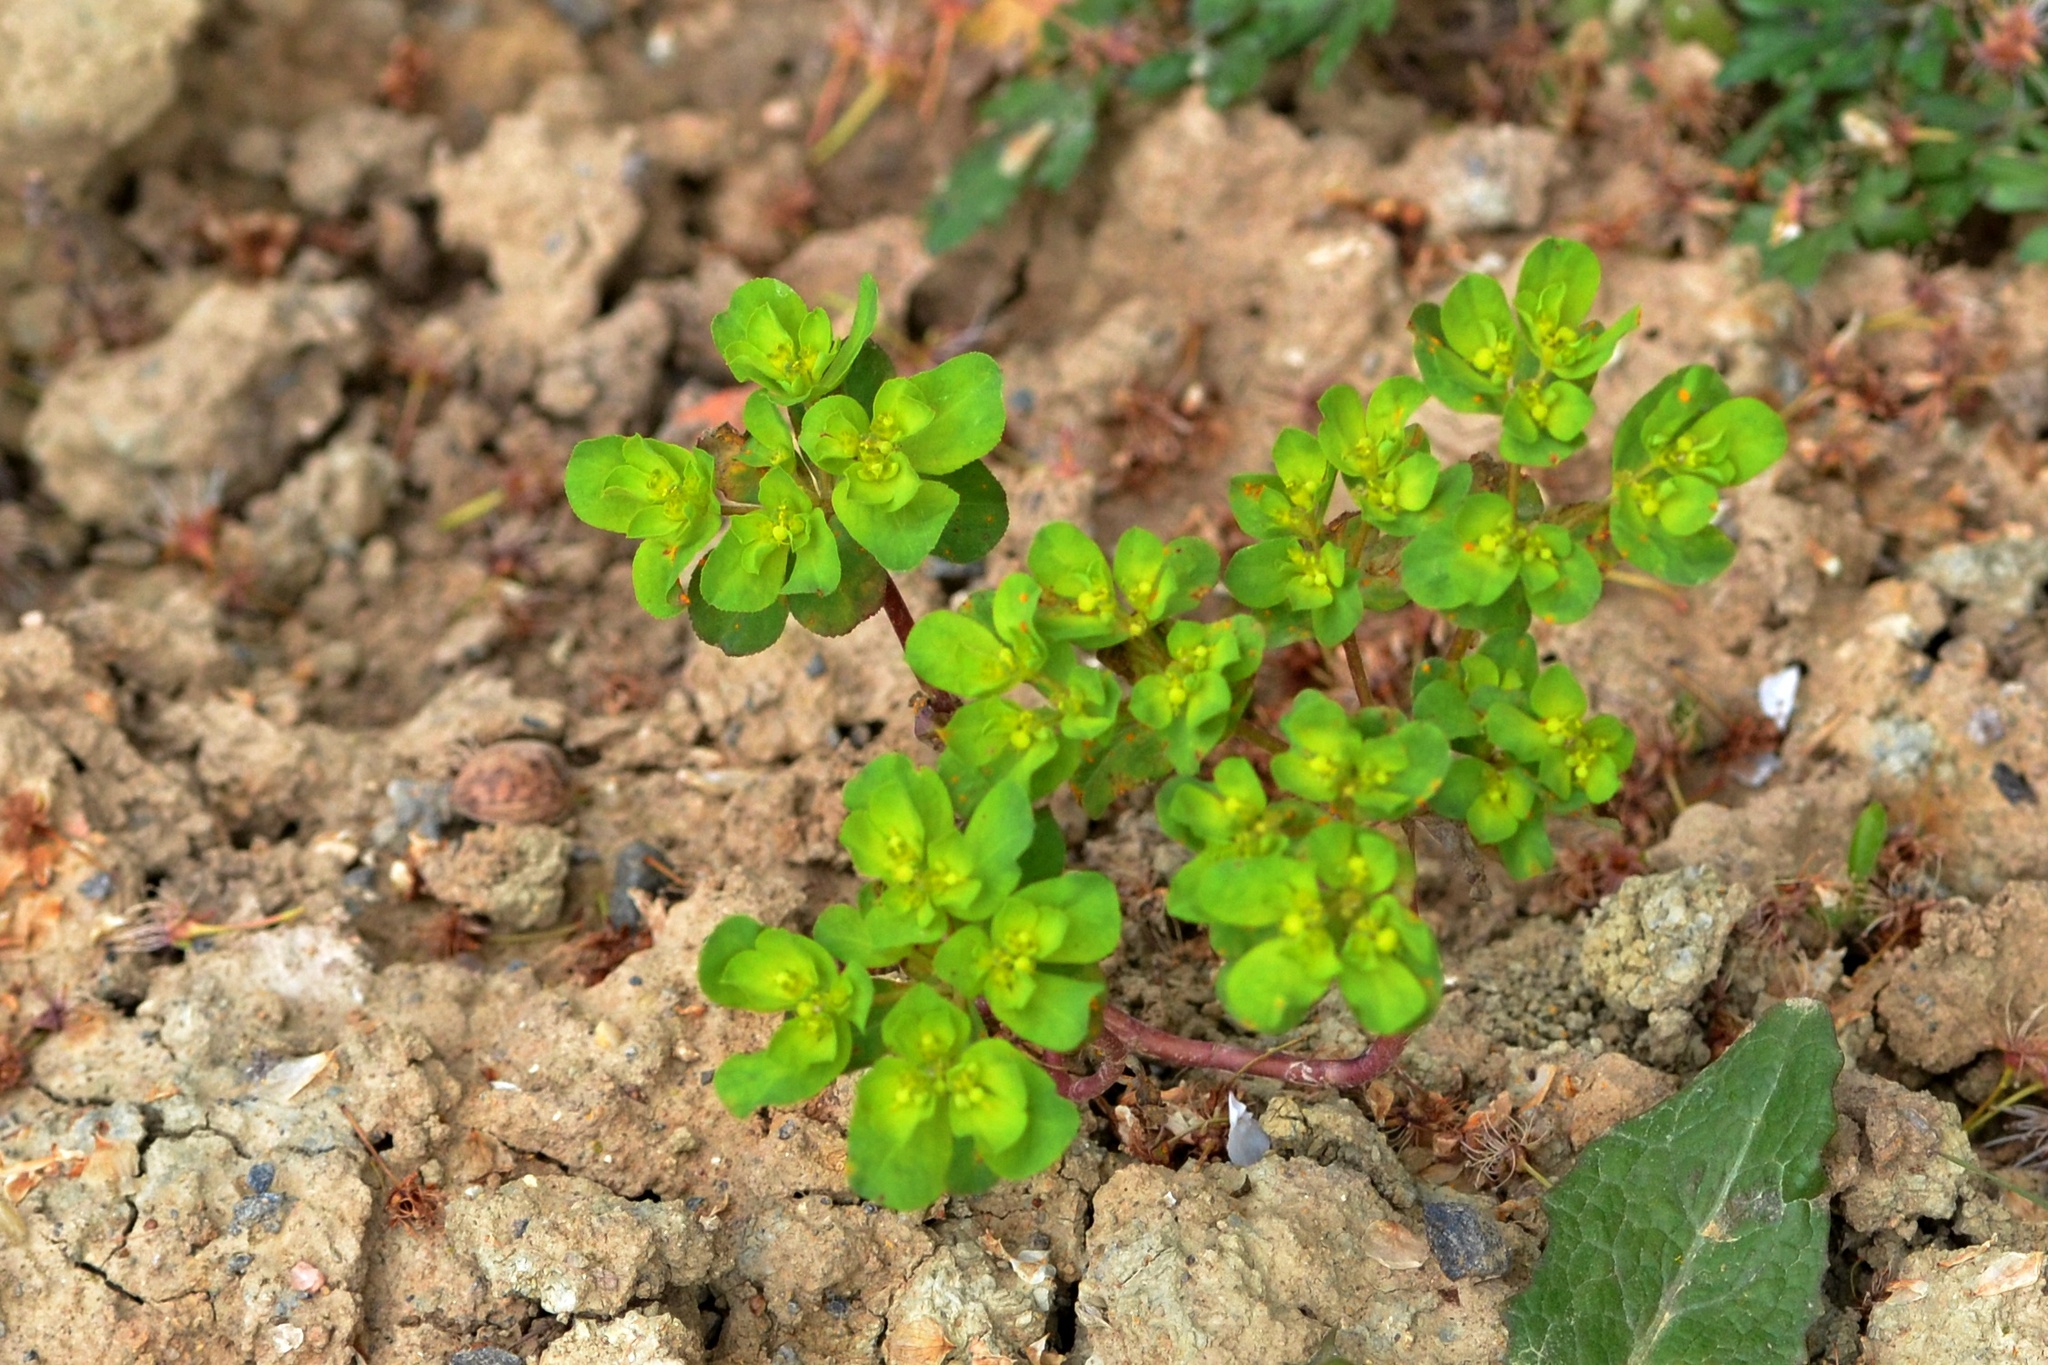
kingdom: Plantae
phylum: Tracheophyta
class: Magnoliopsida
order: Malpighiales
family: Euphorbiaceae
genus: Euphorbia
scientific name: Euphorbia helioscopia
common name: Sun spurge
